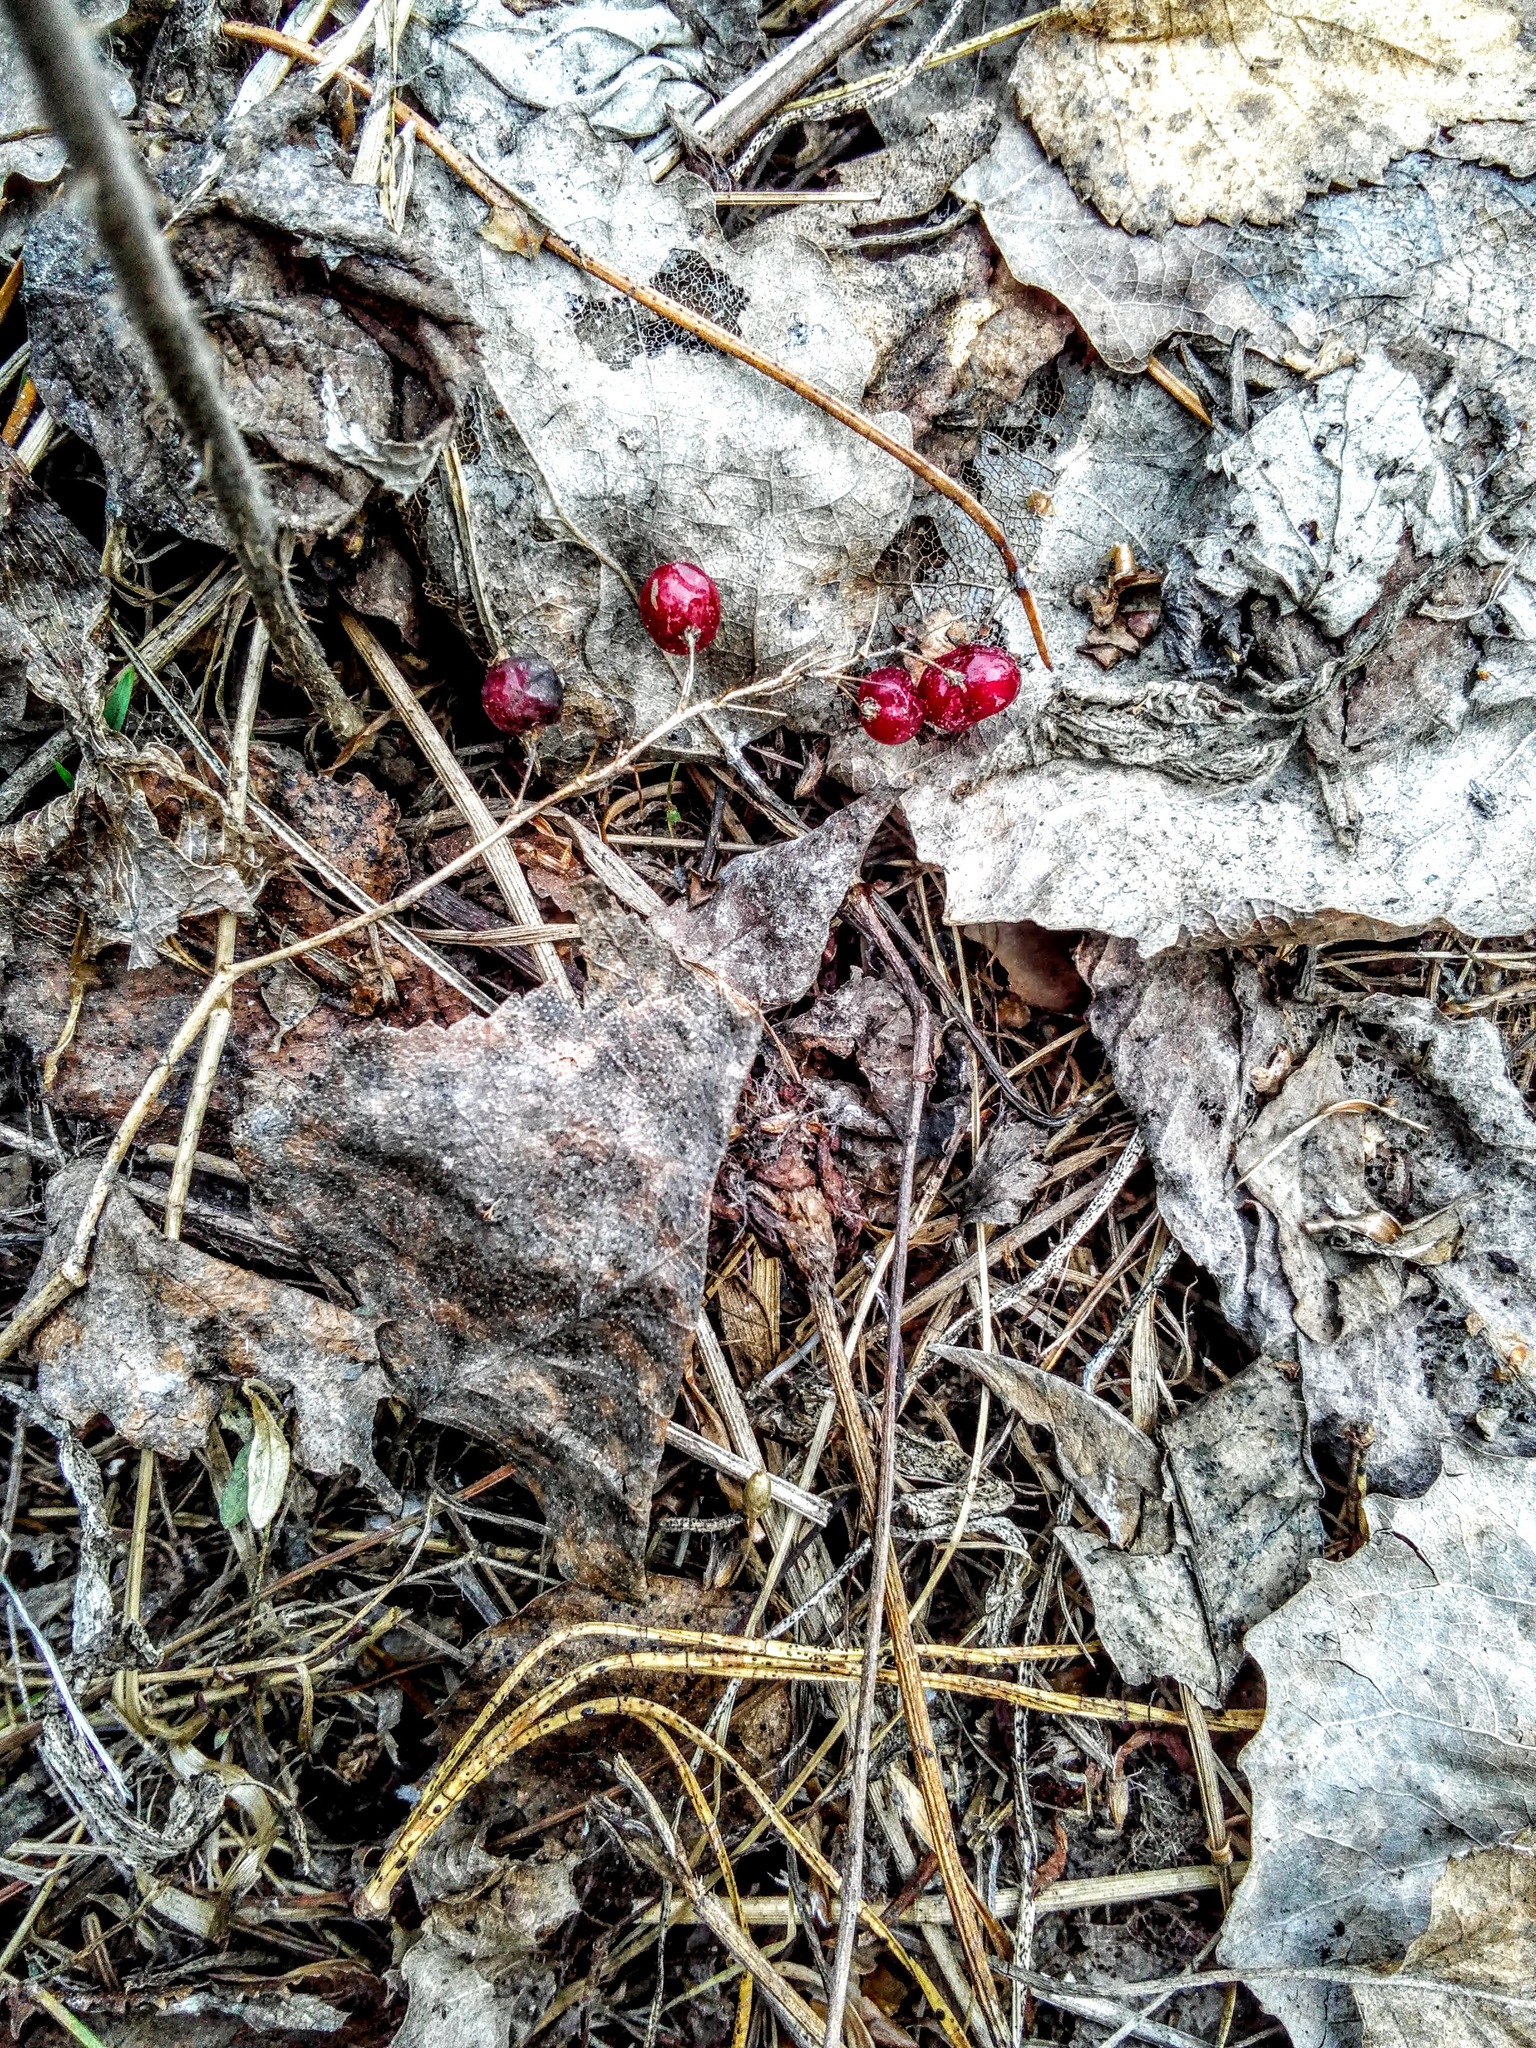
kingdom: Plantae
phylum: Tracheophyta
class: Liliopsida
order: Asparagales
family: Asparagaceae
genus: Maianthemum
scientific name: Maianthemum bifolium
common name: May lily
